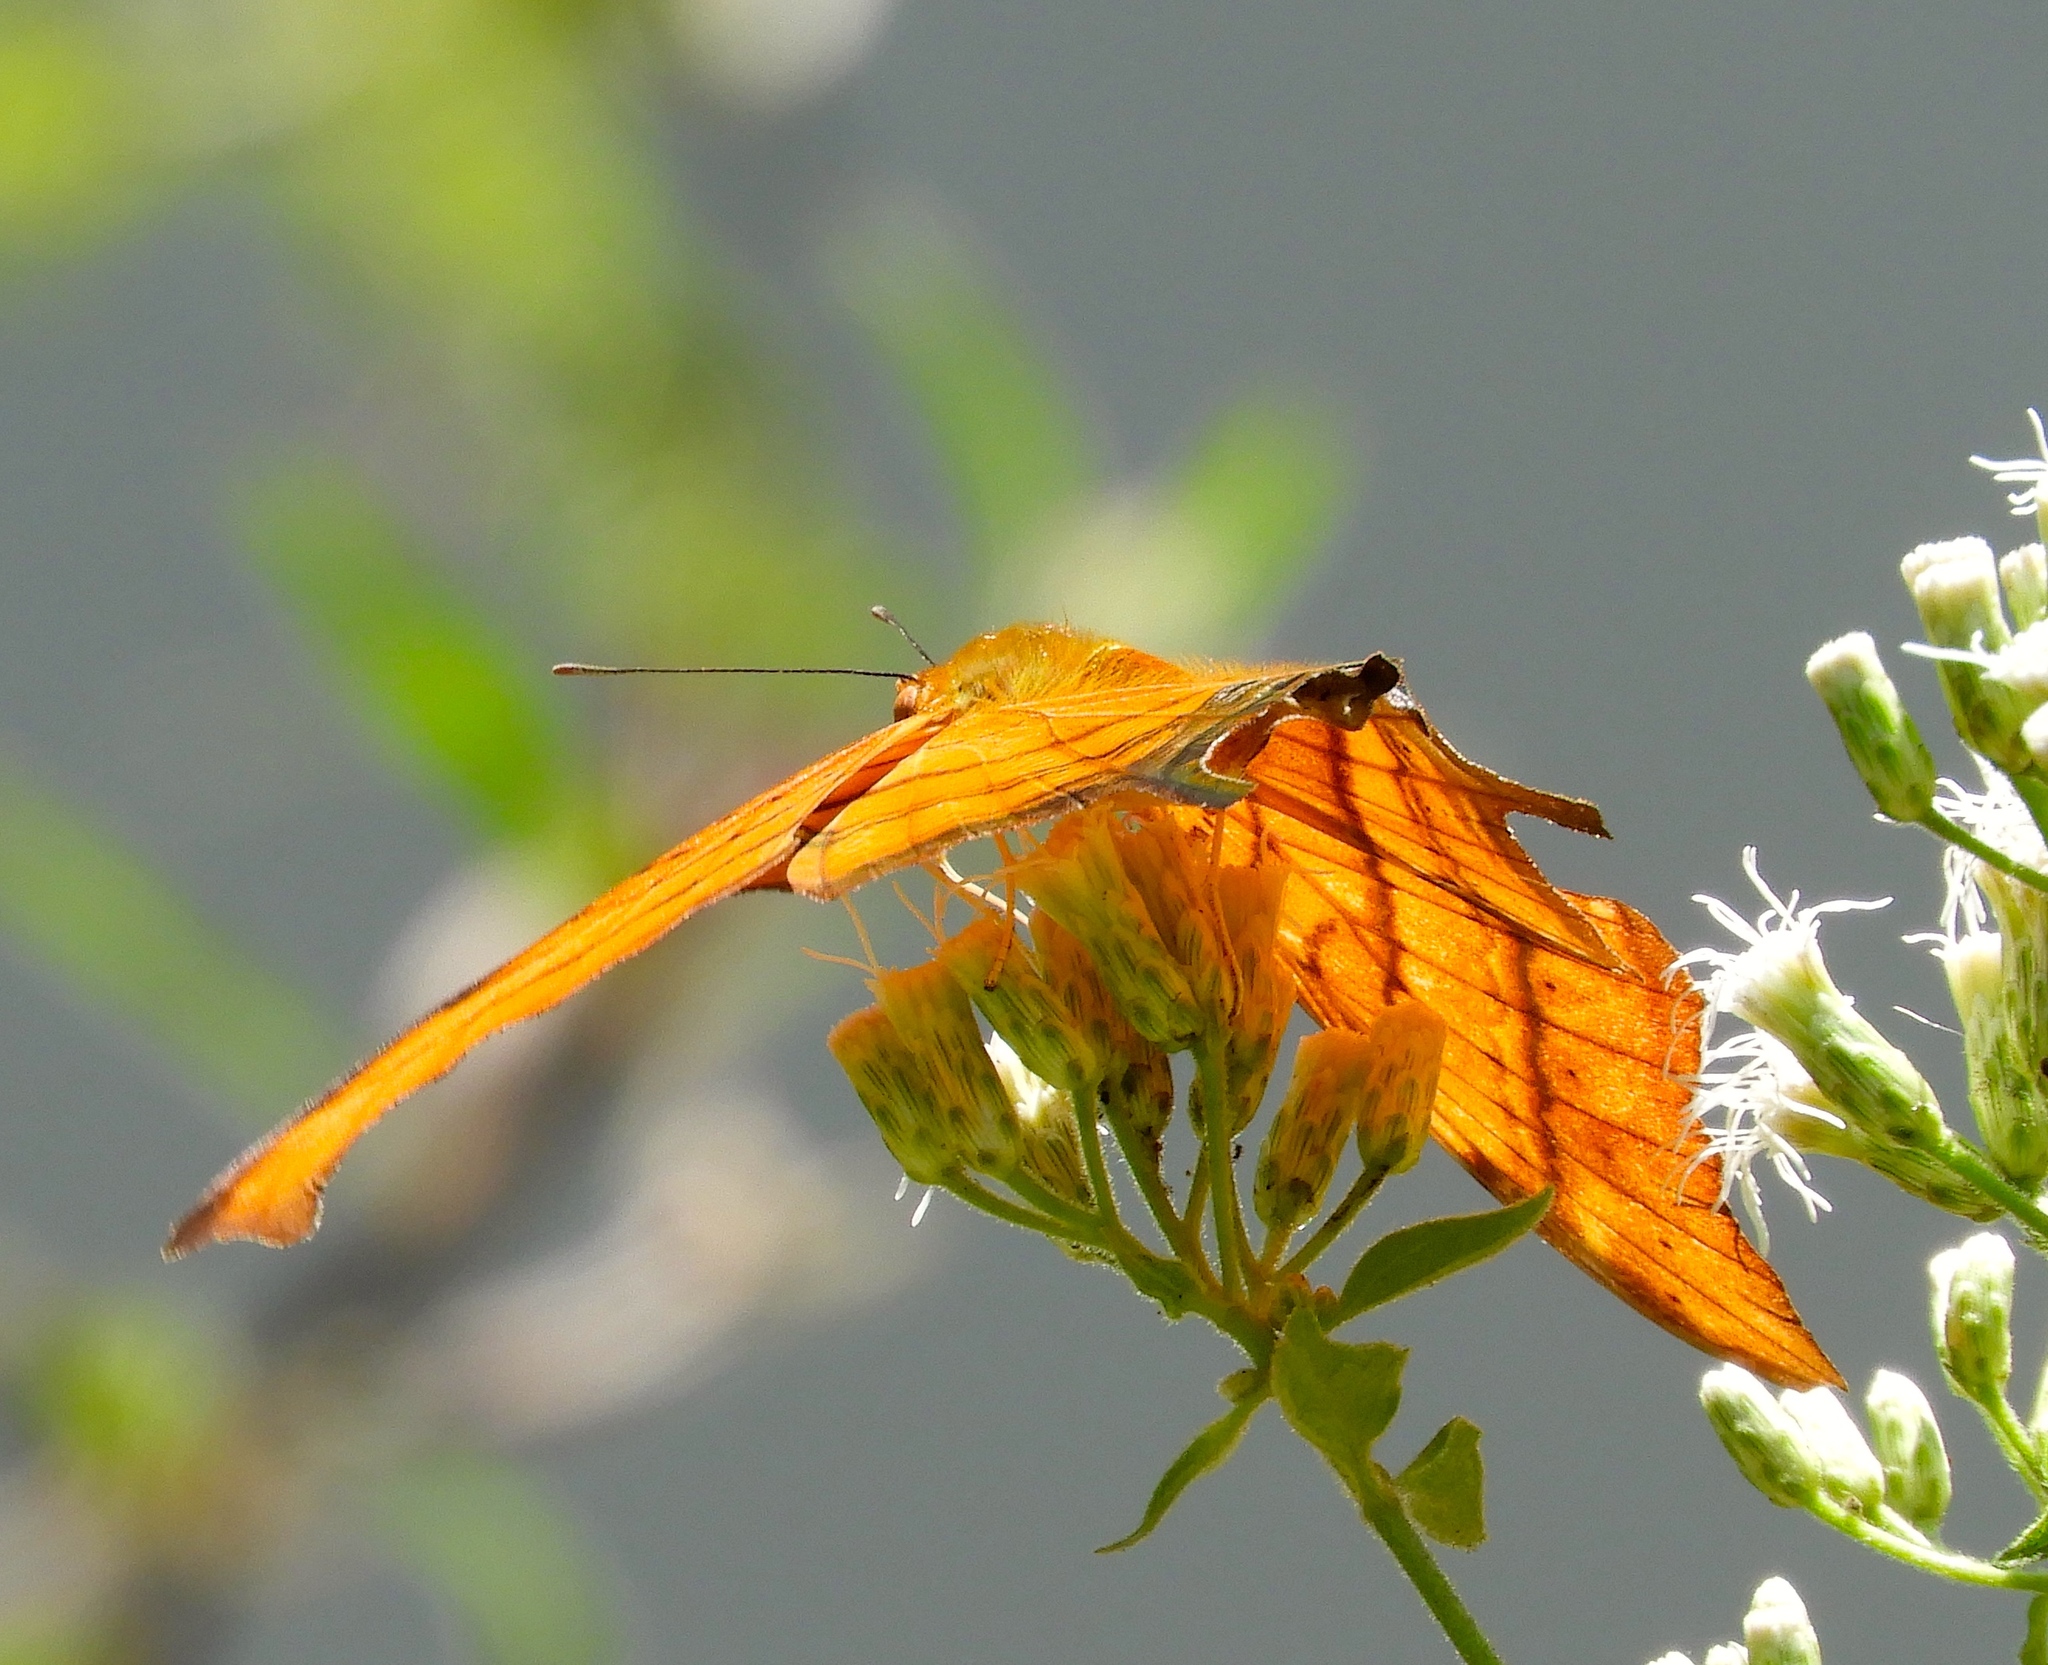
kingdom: Animalia
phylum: Arthropoda
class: Insecta
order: Lepidoptera
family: Nymphalidae
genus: Marpesia
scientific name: Marpesia petreus
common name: Red dagger wing
